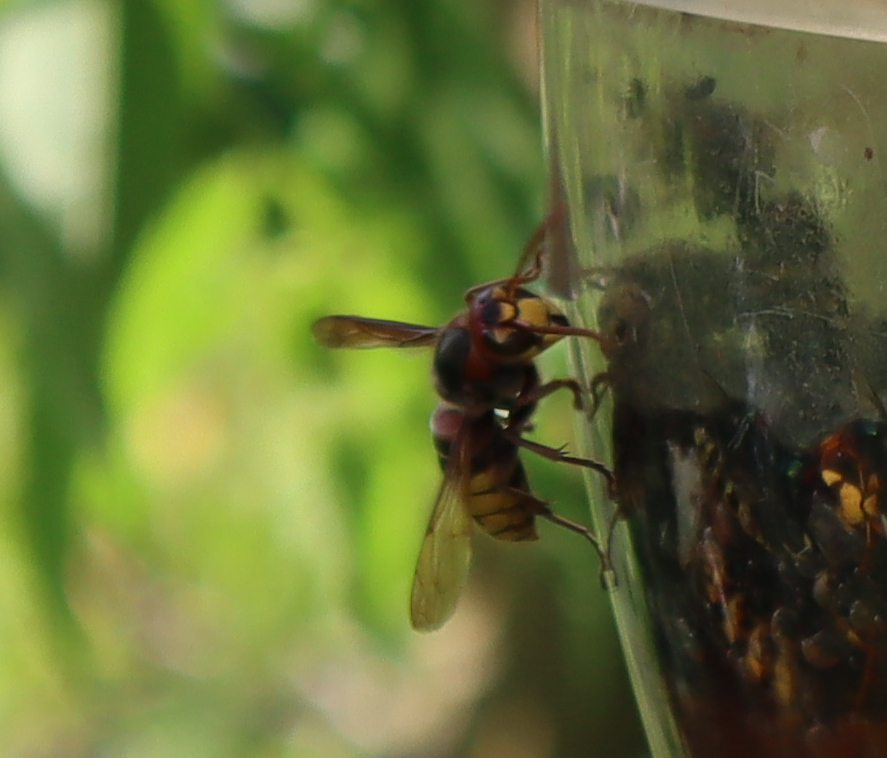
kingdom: Animalia
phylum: Arthropoda
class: Insecta
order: Hymenoptera
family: Vespidae
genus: Vespa
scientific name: Vespa crabro
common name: Hornet
